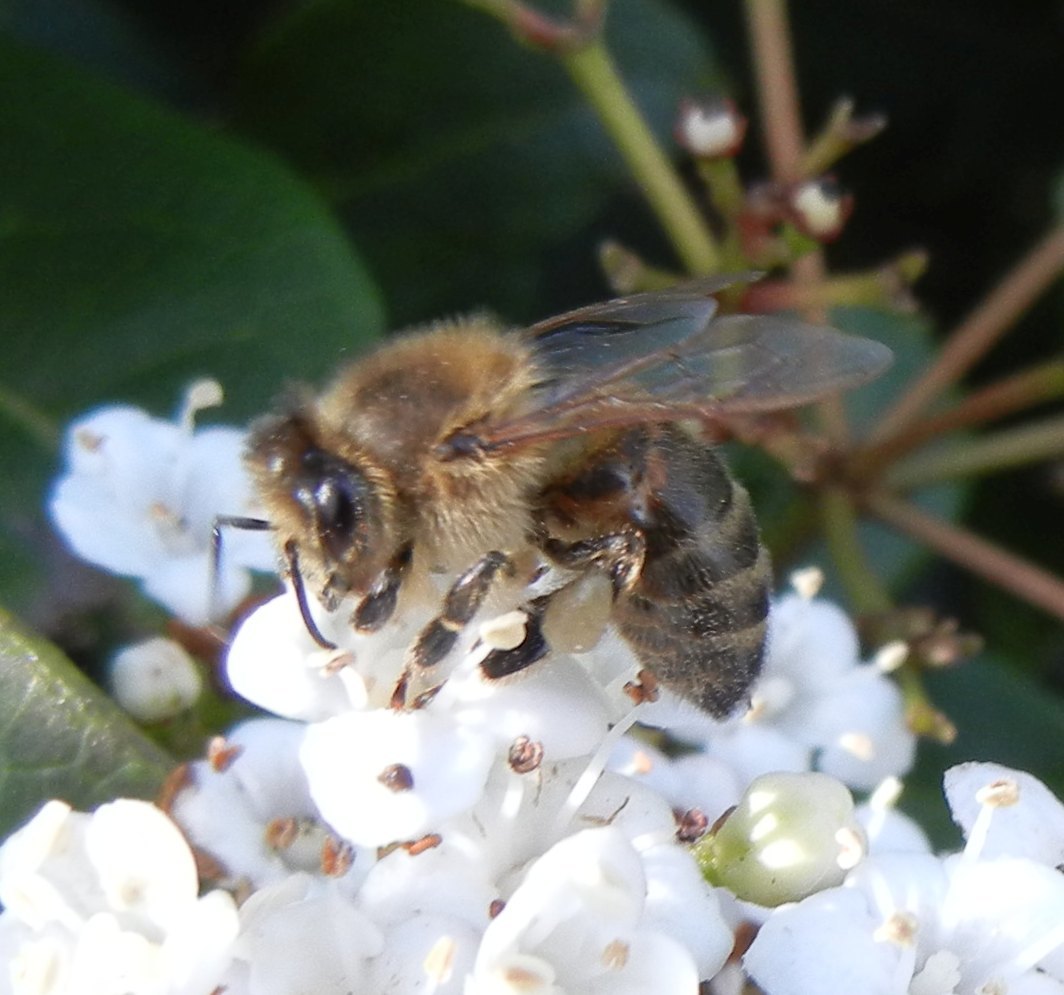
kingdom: Animalia
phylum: Arthropoda
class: Insecta
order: Hymenoptera
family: Apidae
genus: Apis
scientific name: Apis mellifera
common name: Honey bee
